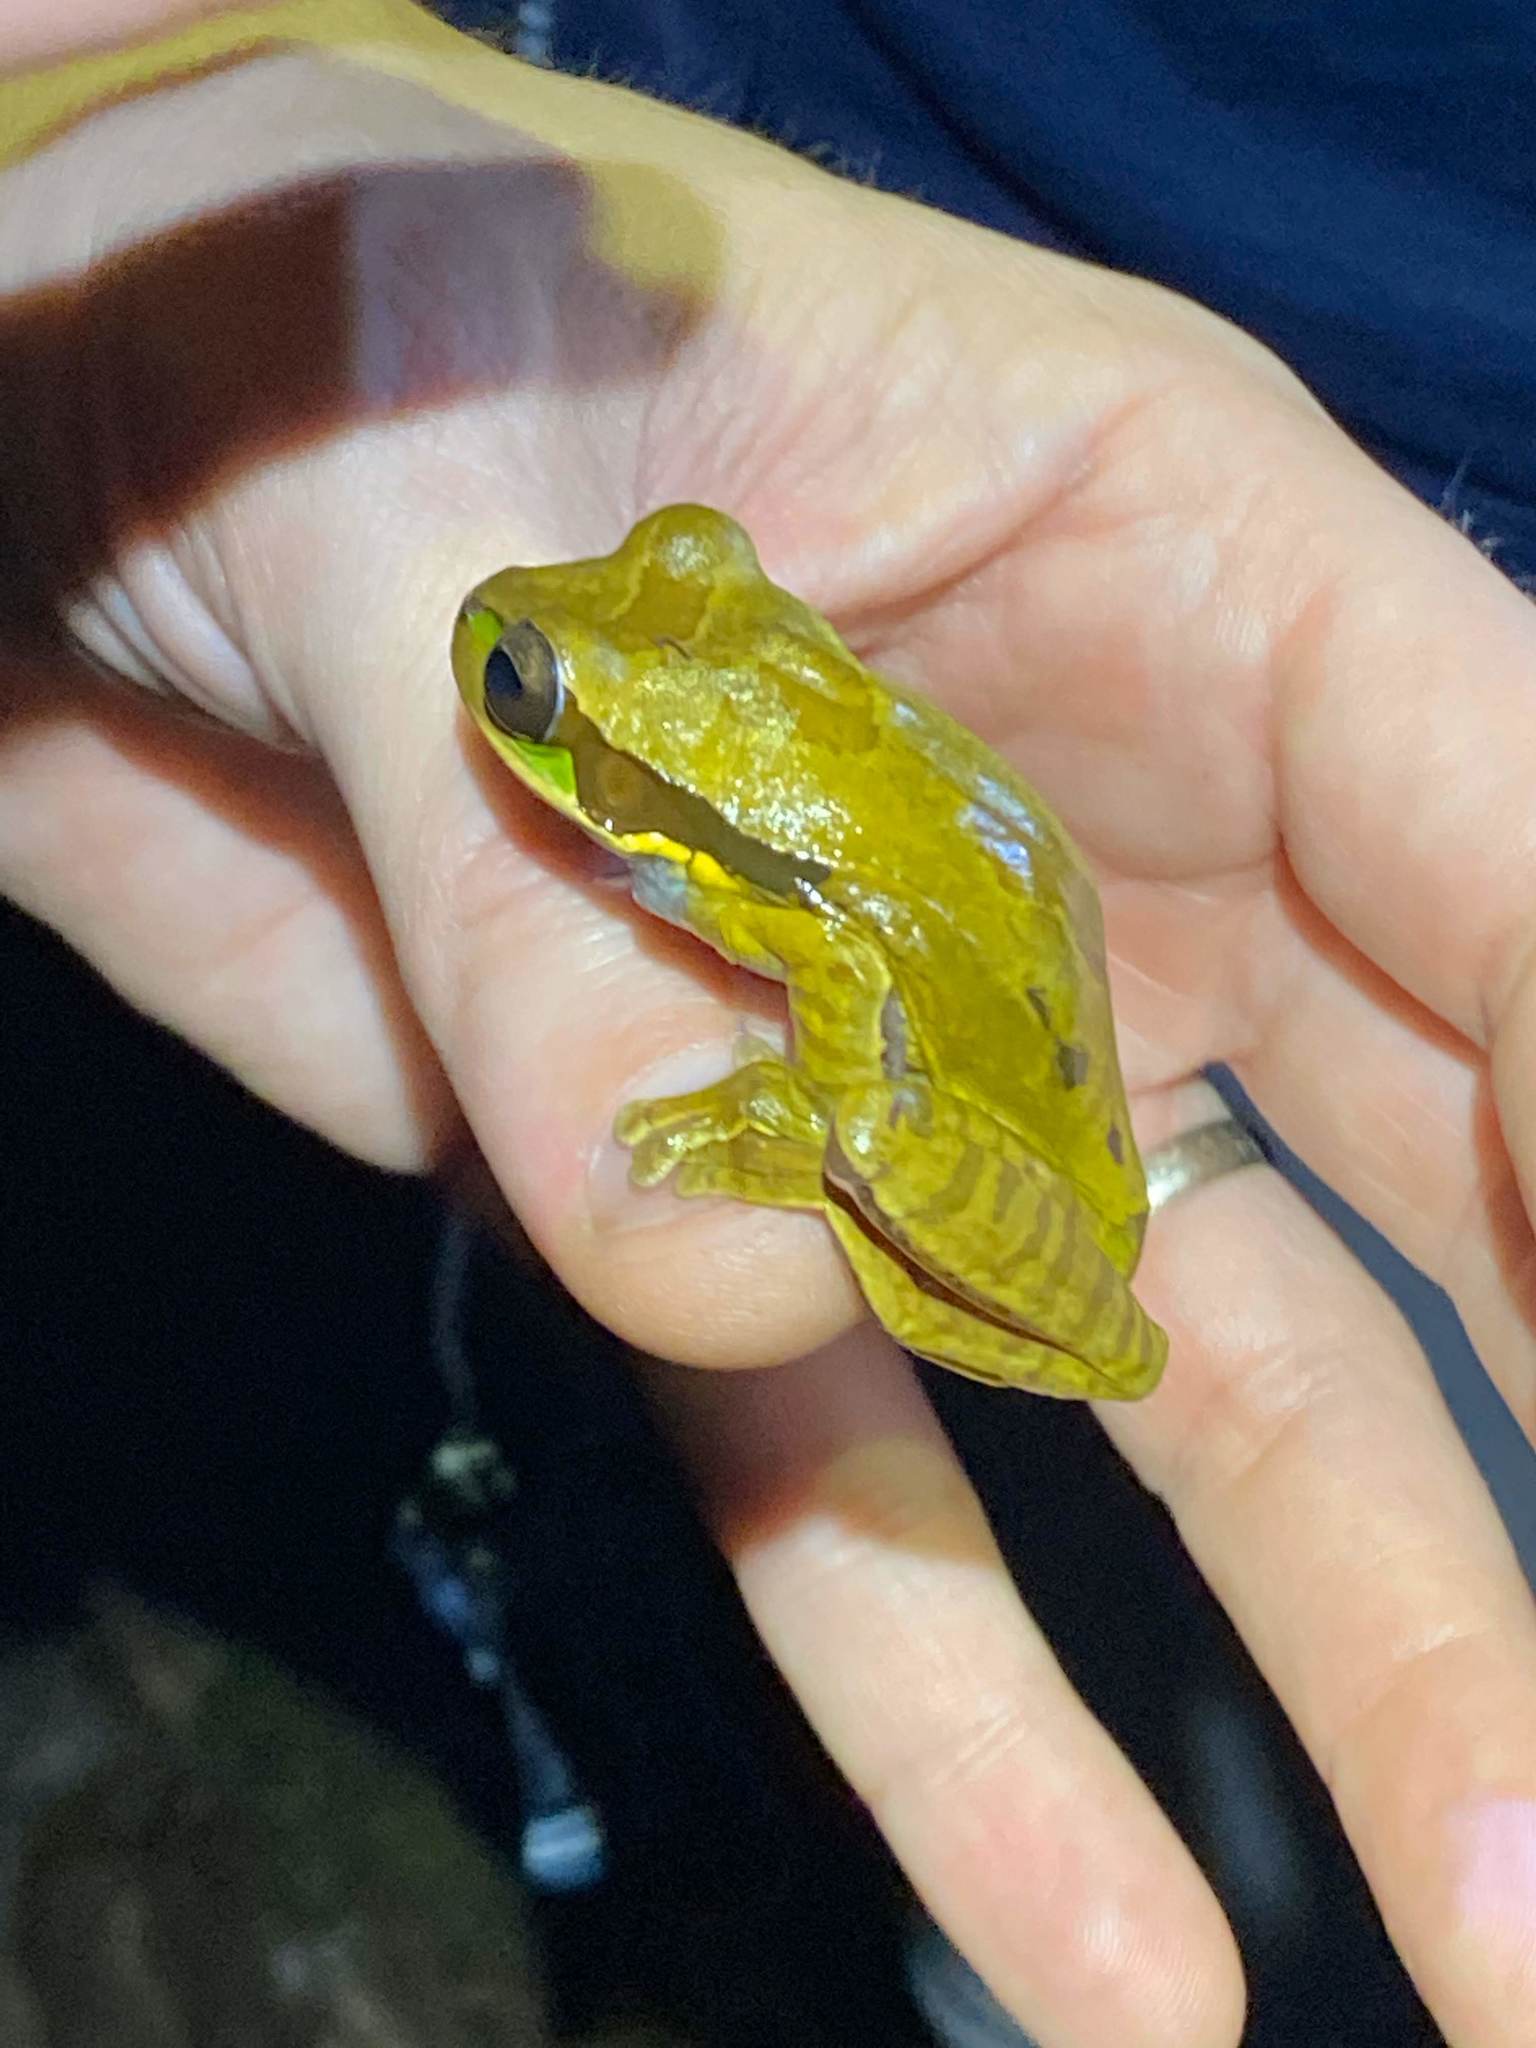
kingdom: Animalia
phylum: Chordata
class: Amphibia
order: Anura
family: Hylidae
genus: Smilisca
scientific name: Smilisca phaeota
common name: Central american smilisca
